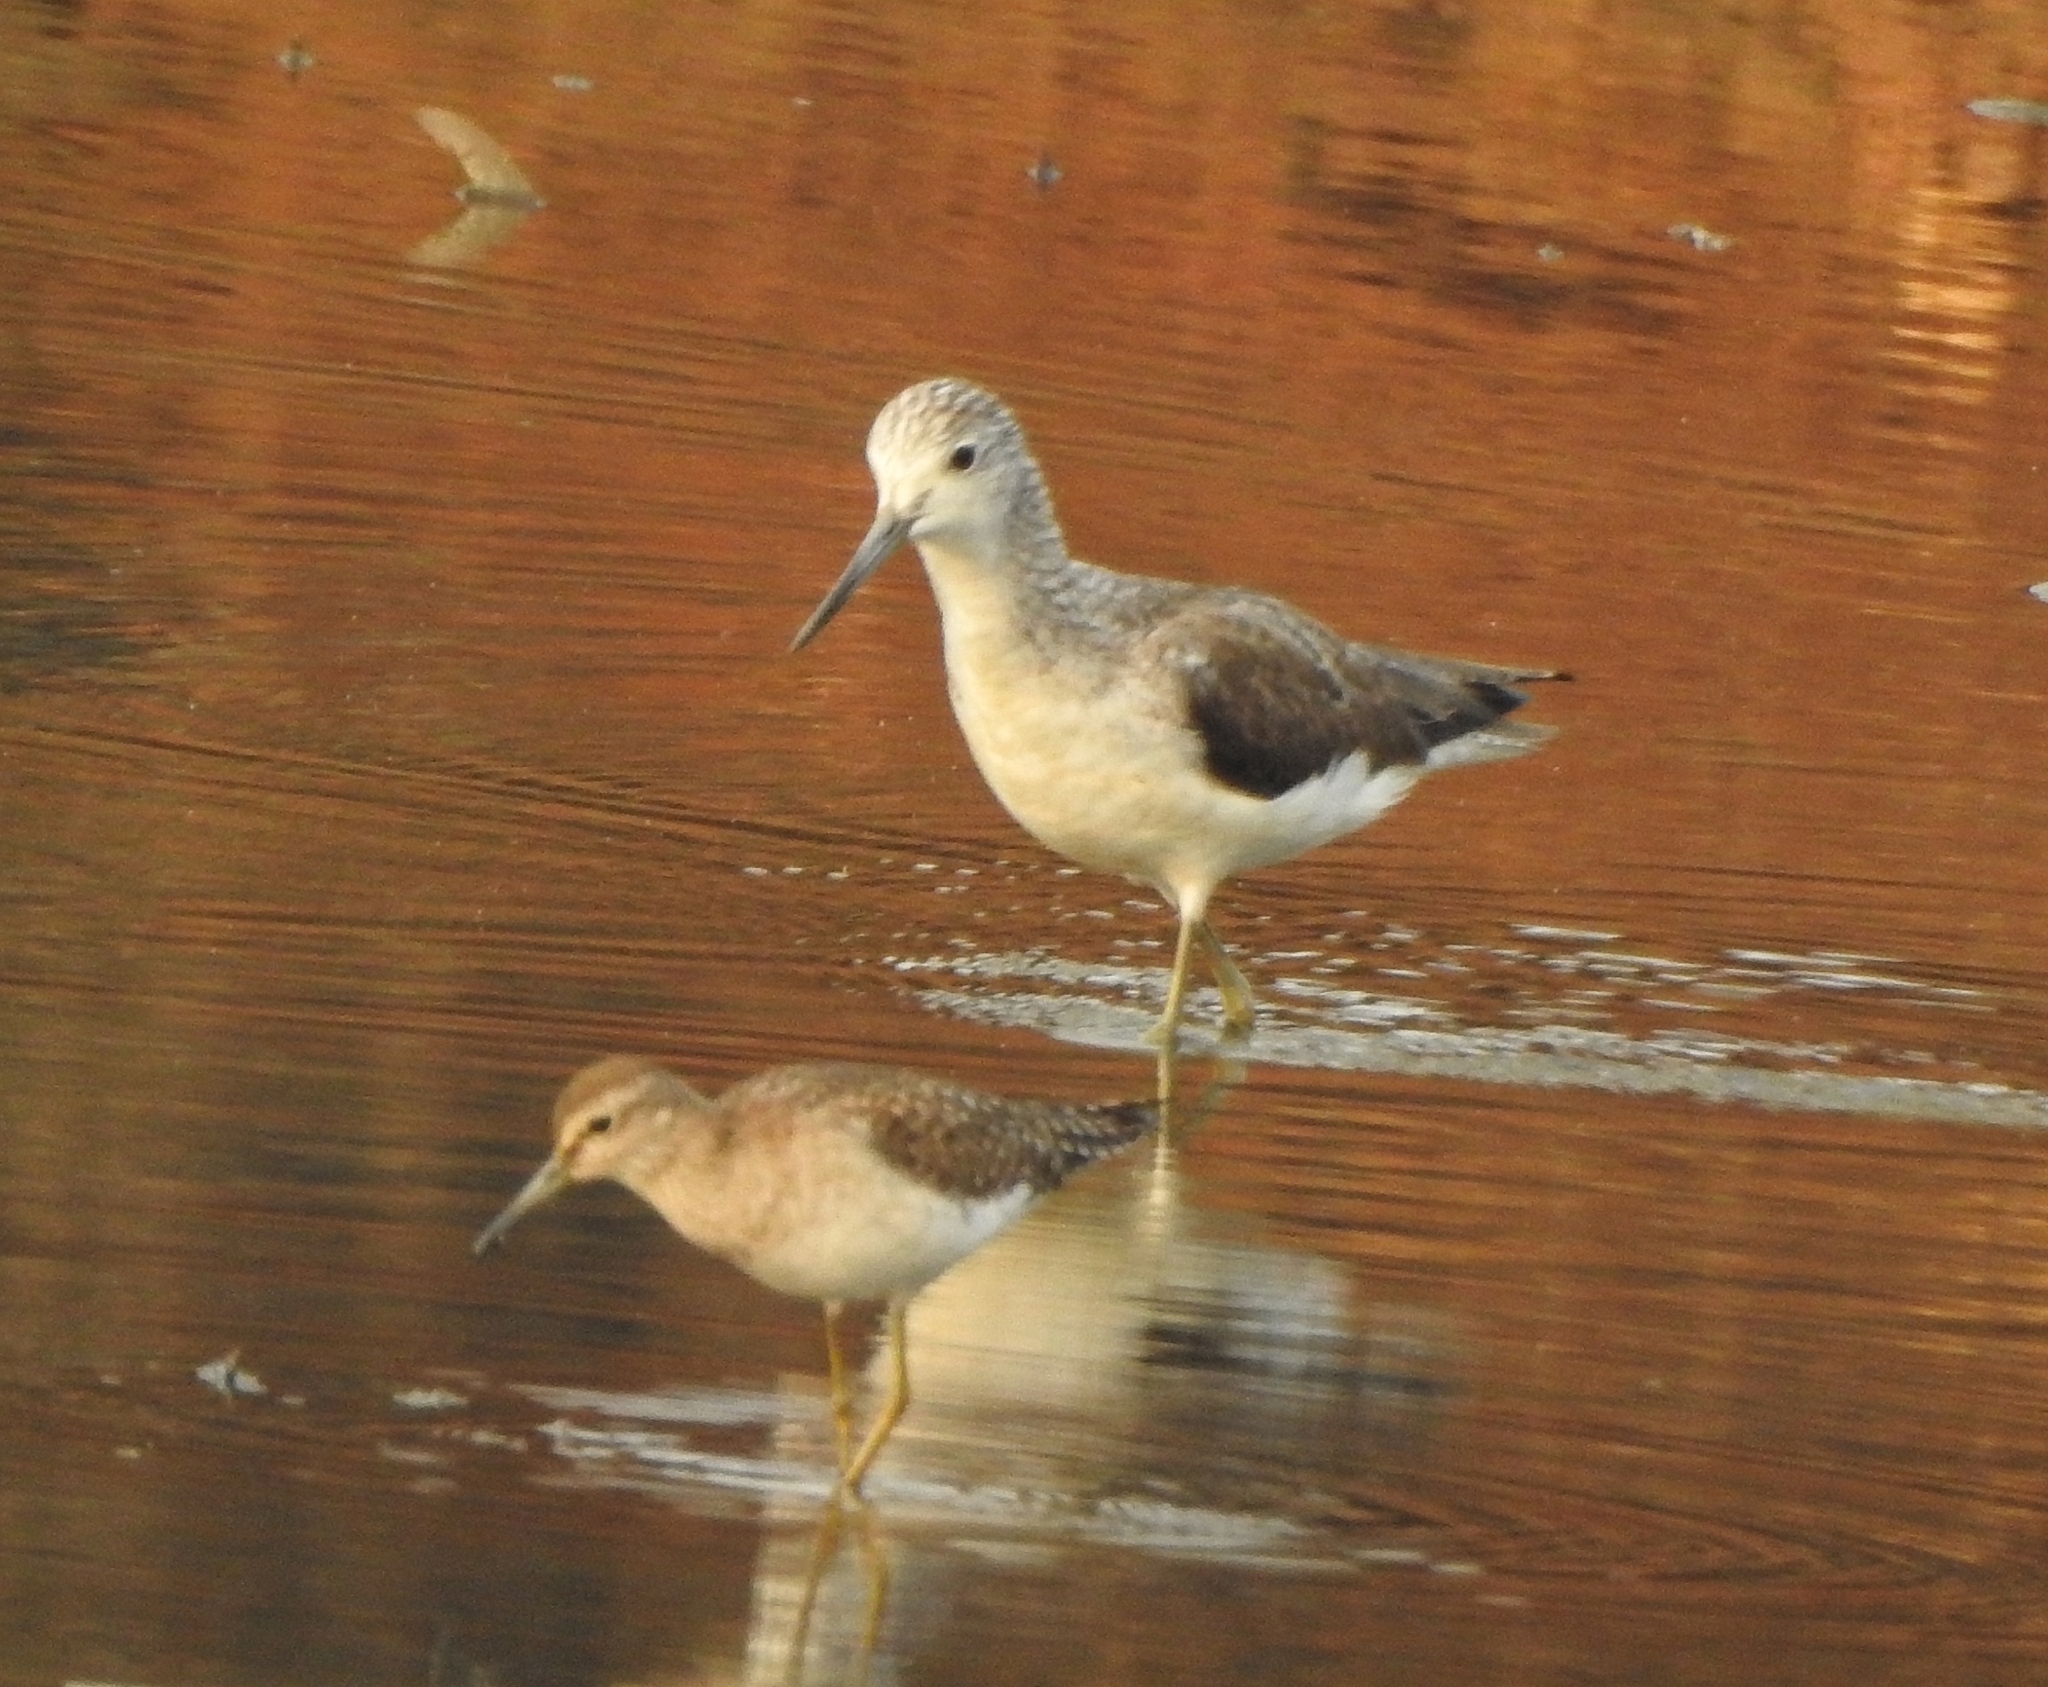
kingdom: Animalia
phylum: Chordata
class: Aves
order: Charadriiformes
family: Scolopacidae
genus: Tringa
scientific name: Tringa nebularia
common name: Common greenshank
